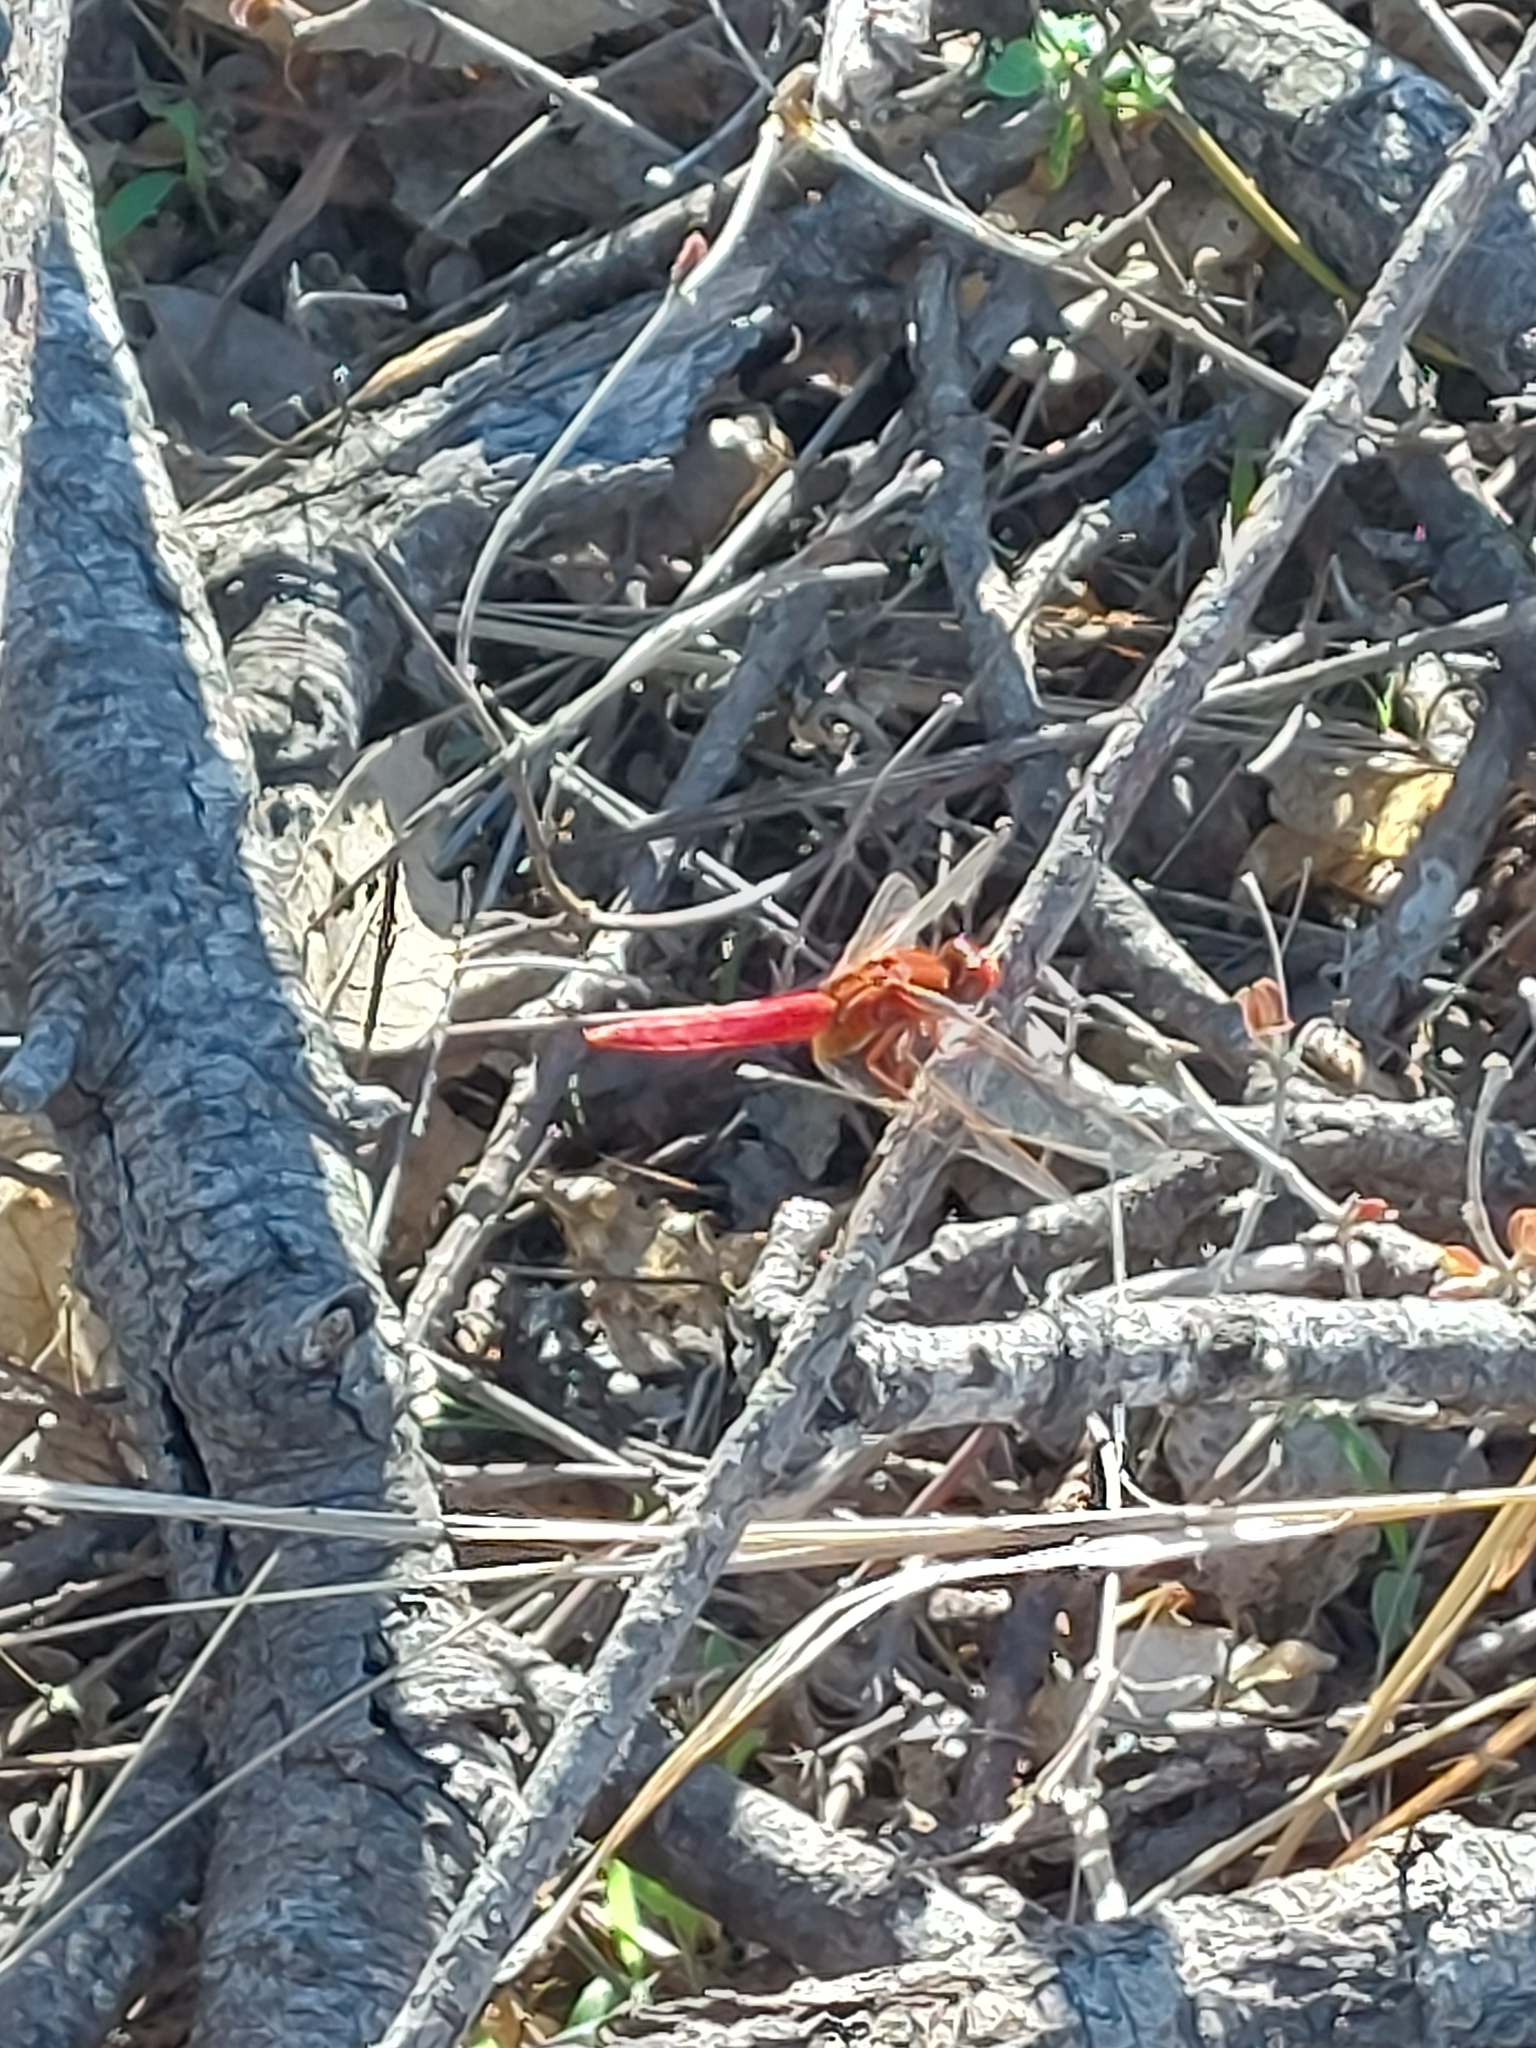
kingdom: Animalia
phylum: Arthropoda
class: Insecta
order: Odonata
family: Libellulidae
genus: Crocothemis
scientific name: Crocothemis erythraea
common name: Scarlet dragonfly
